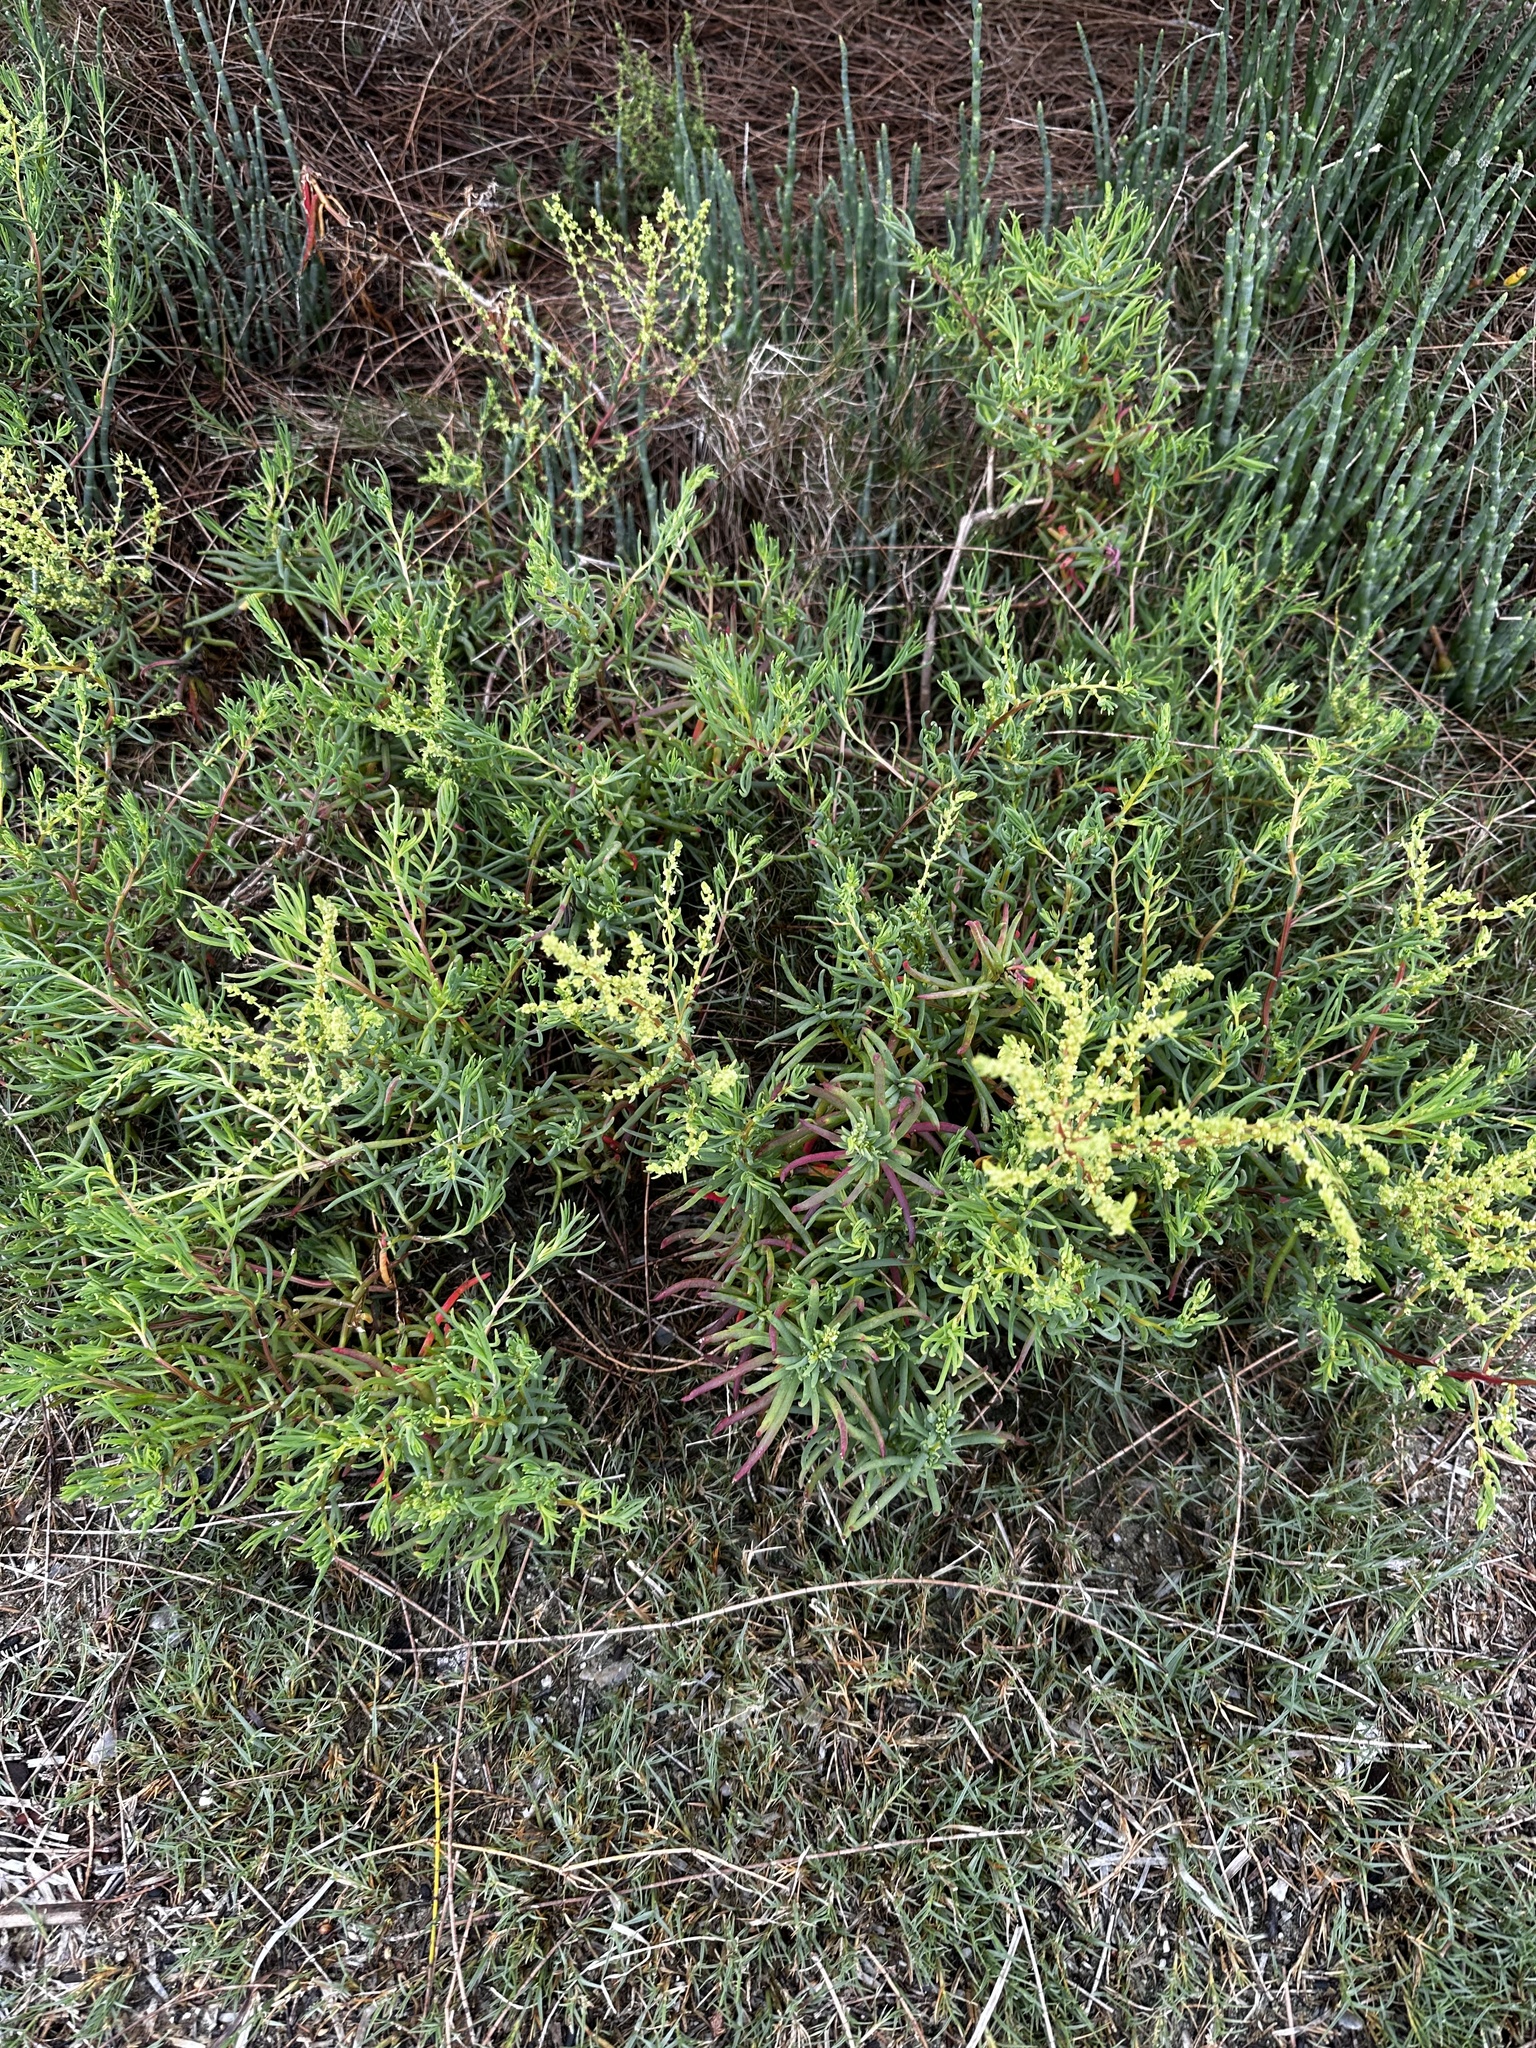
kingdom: Plantae
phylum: Tracheophyta
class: Magnoliopsida
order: Caryophyllales
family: Amaranthaceae
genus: Suaeda
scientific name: Suaeda australis
